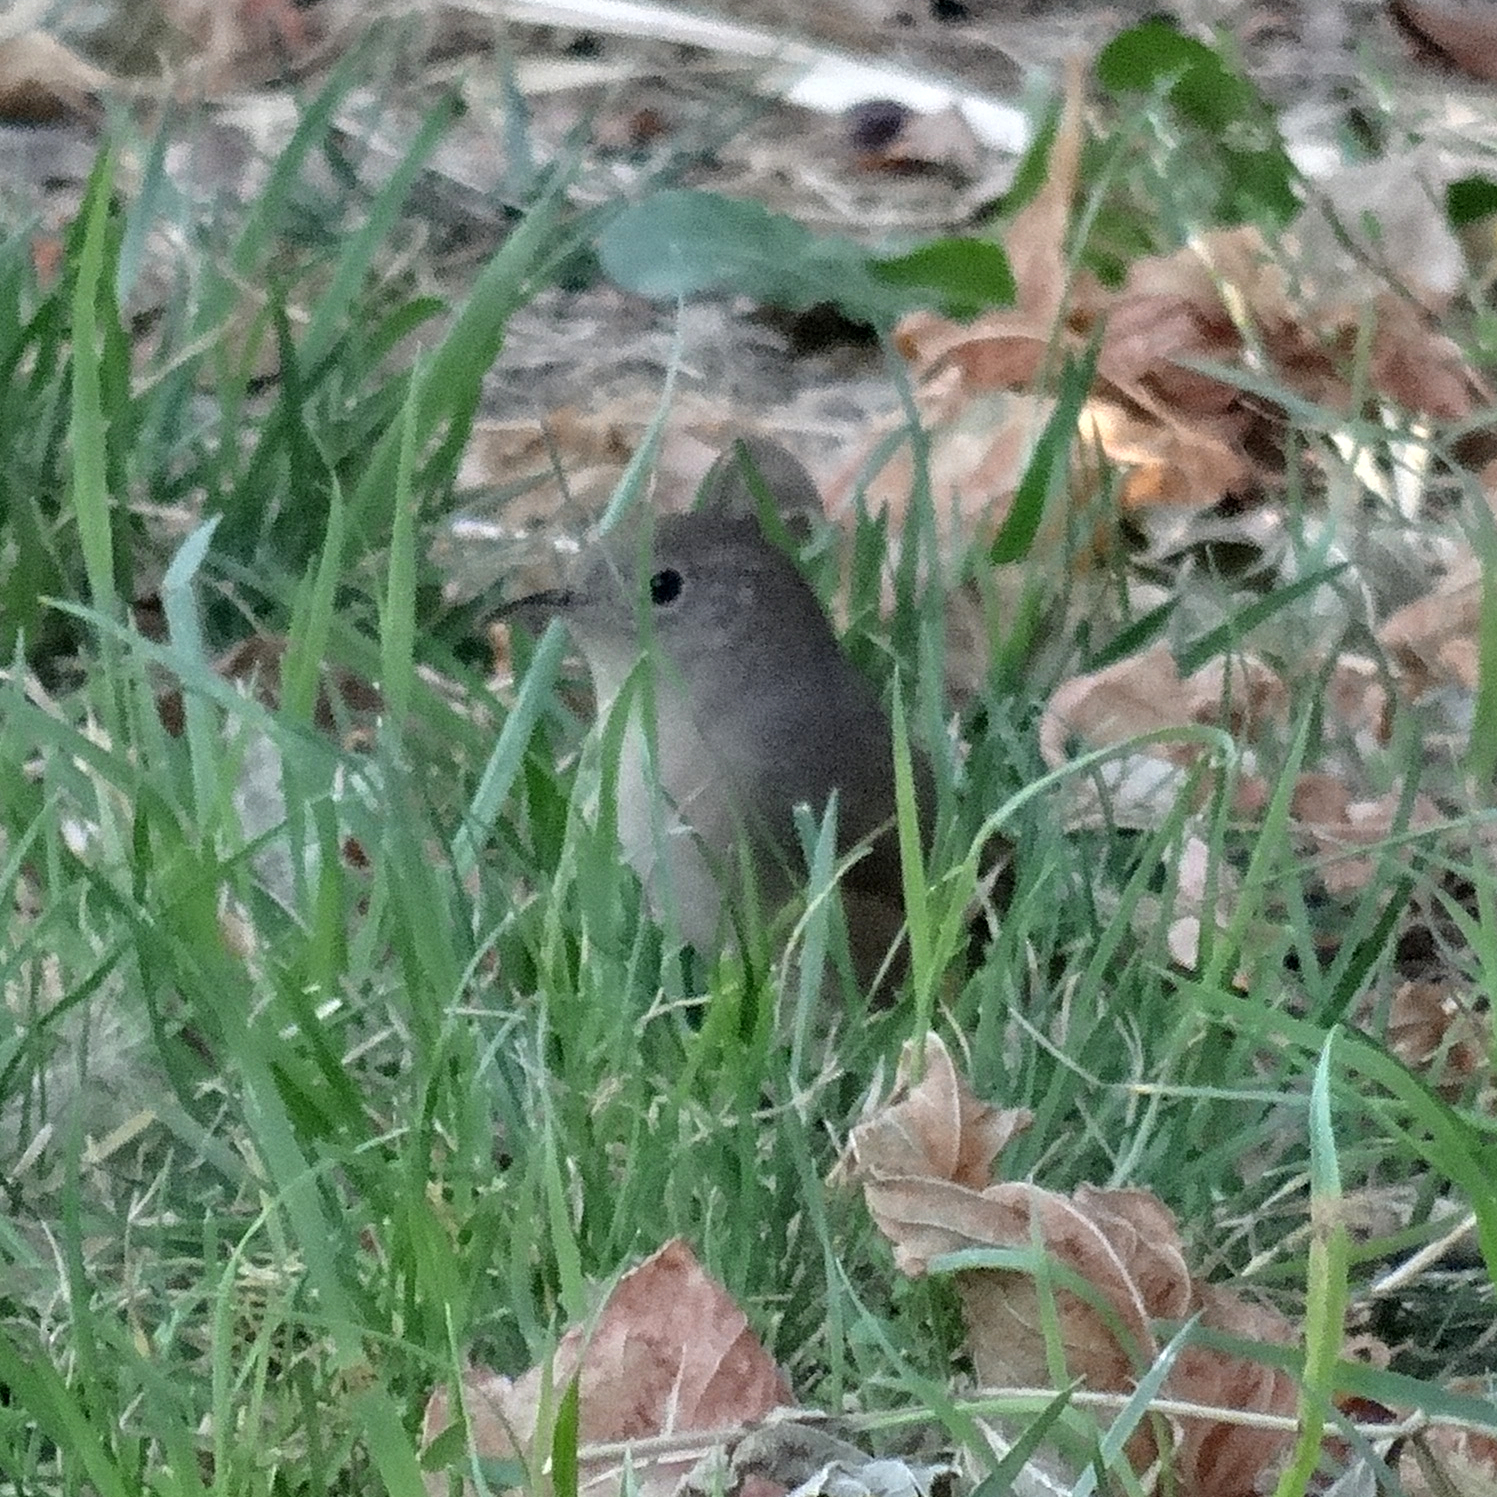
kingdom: Animalia
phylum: Chordata
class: Aves
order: Passeriformes
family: Troglodytidae
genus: Troglodytes
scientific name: Troglodytes aedon
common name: House wren
